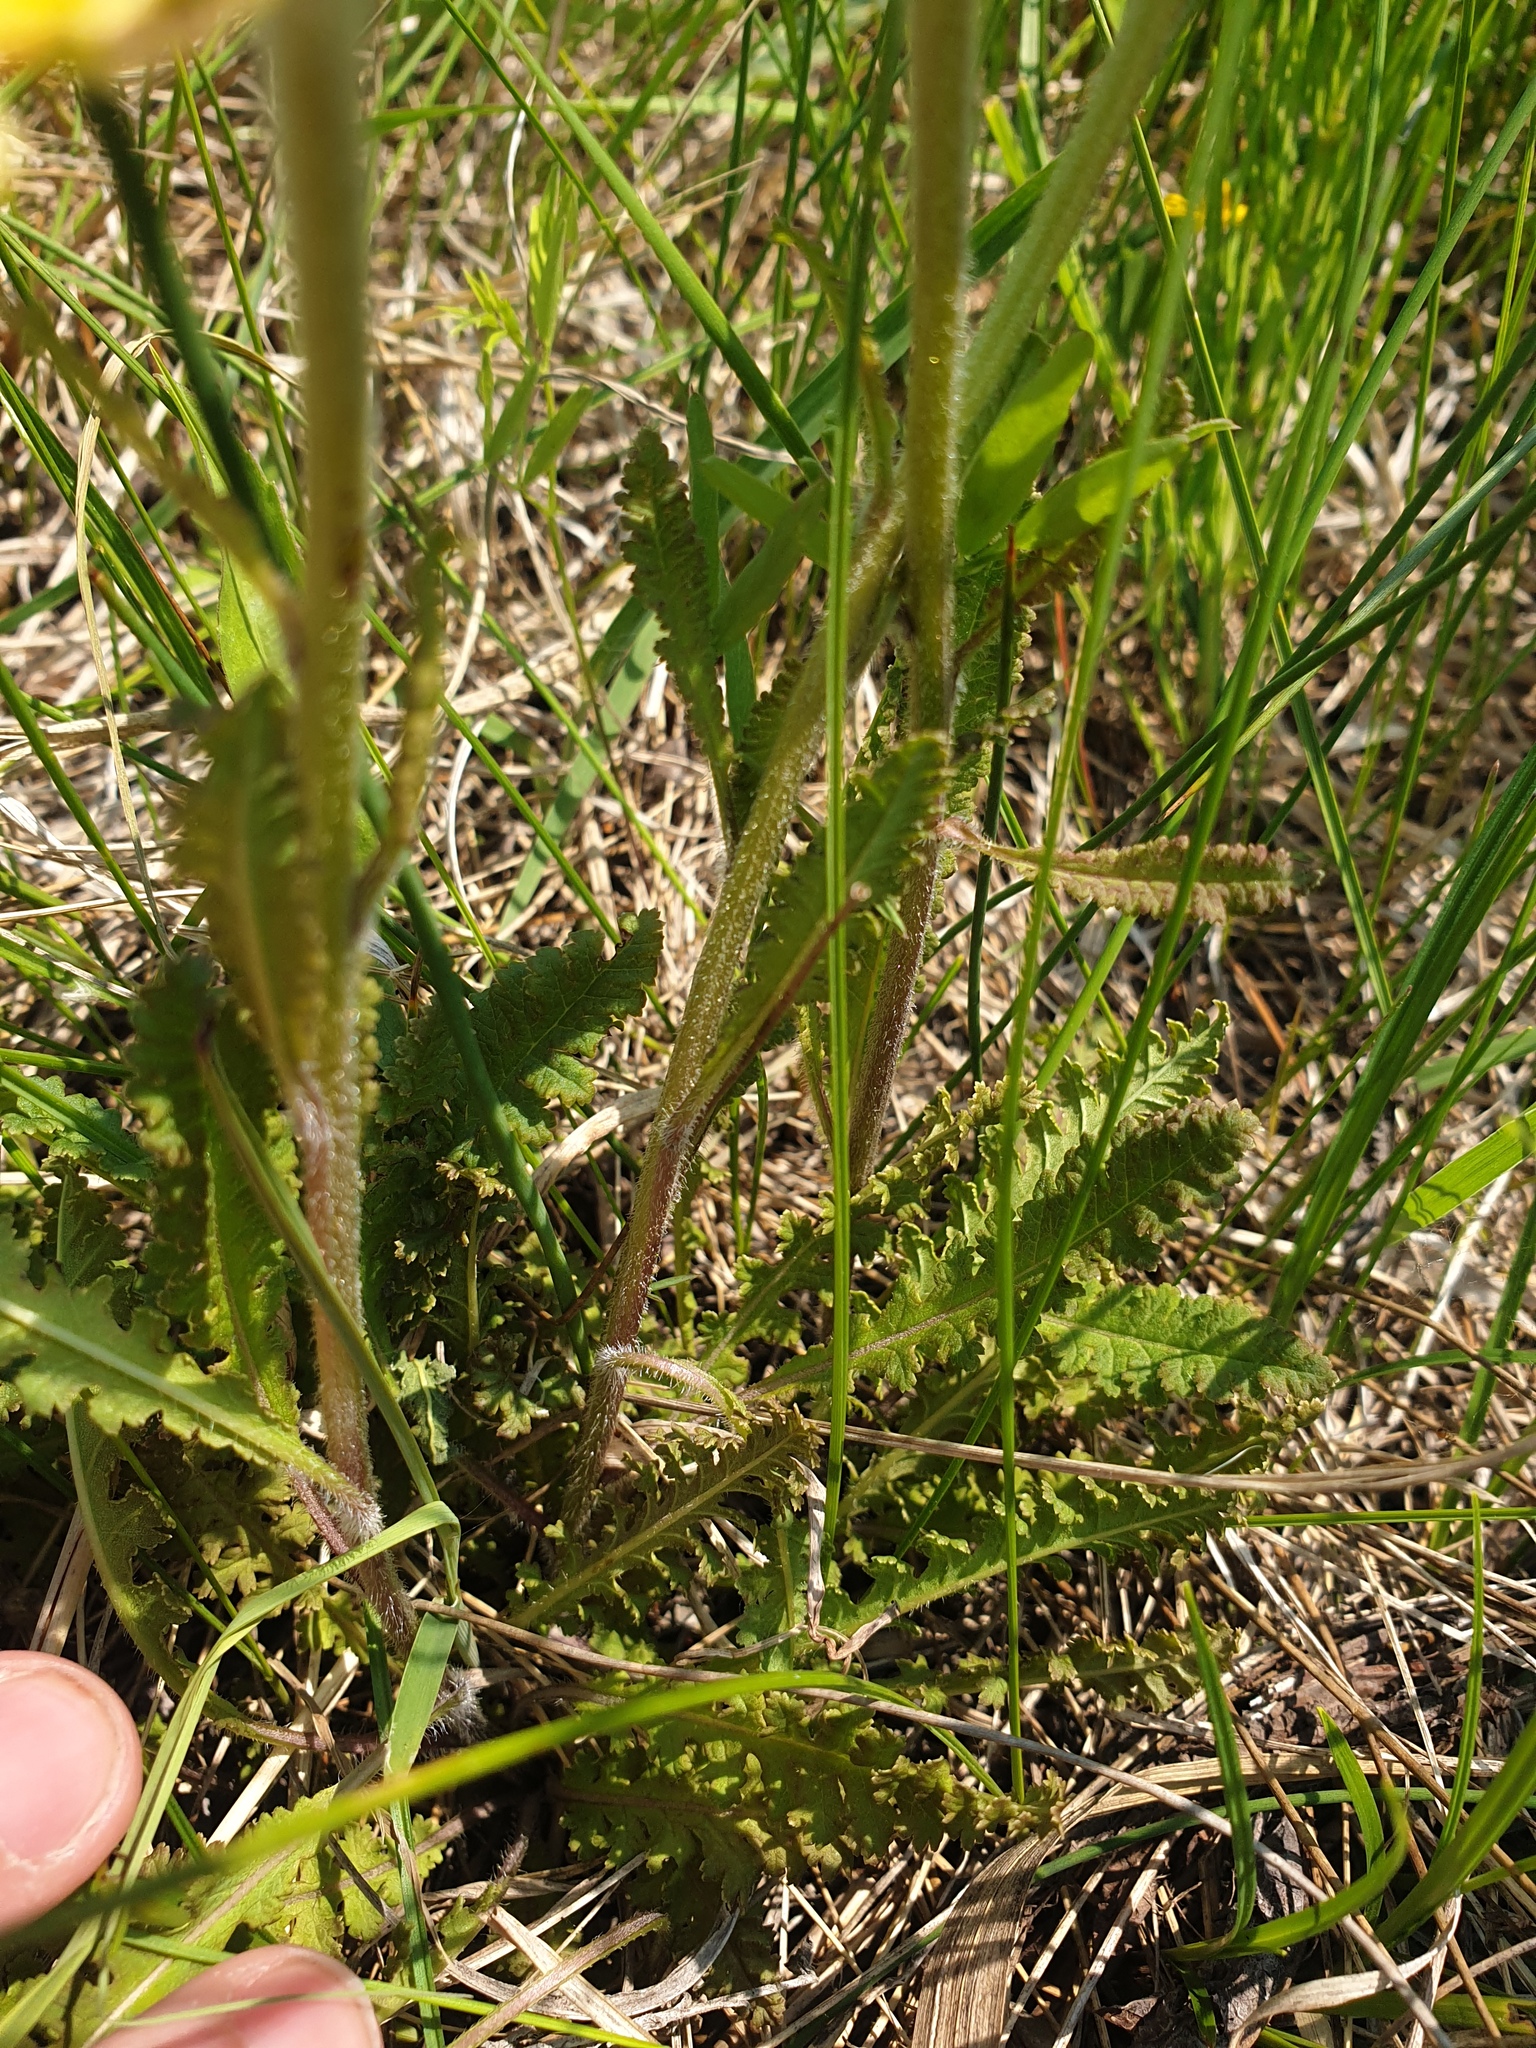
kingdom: Plantae
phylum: Tracheophyta
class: Magnoliopsida
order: Lamiales
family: Orobanchaceae
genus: Pedicularis
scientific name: Pedicularis canadensis
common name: Early lousewort
